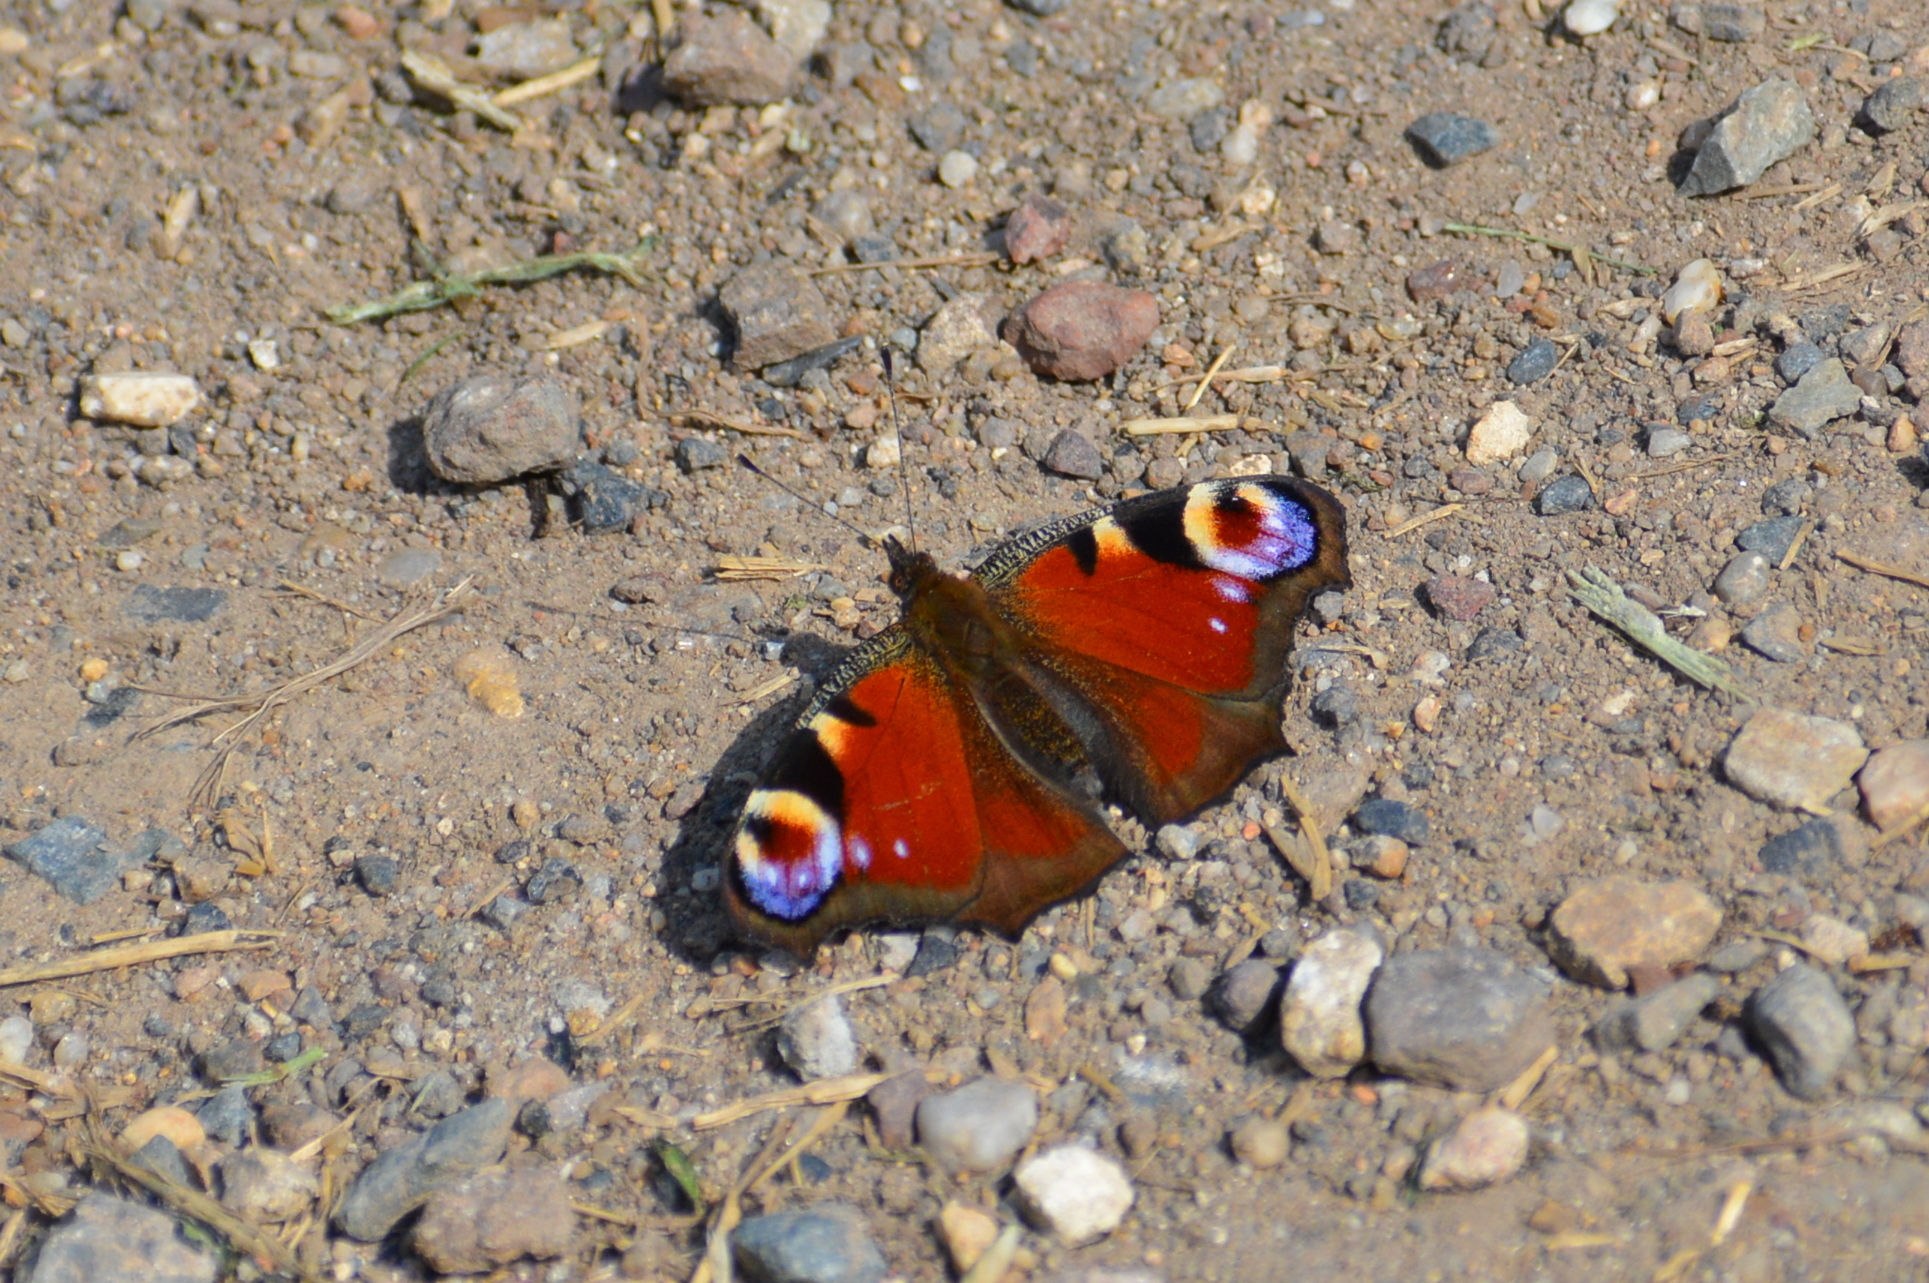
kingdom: Animalia
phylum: Arthropoda
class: Insecta
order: Lepidoptera
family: Nymphalidae
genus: Aglais
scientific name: Aglais io
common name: Peacock
